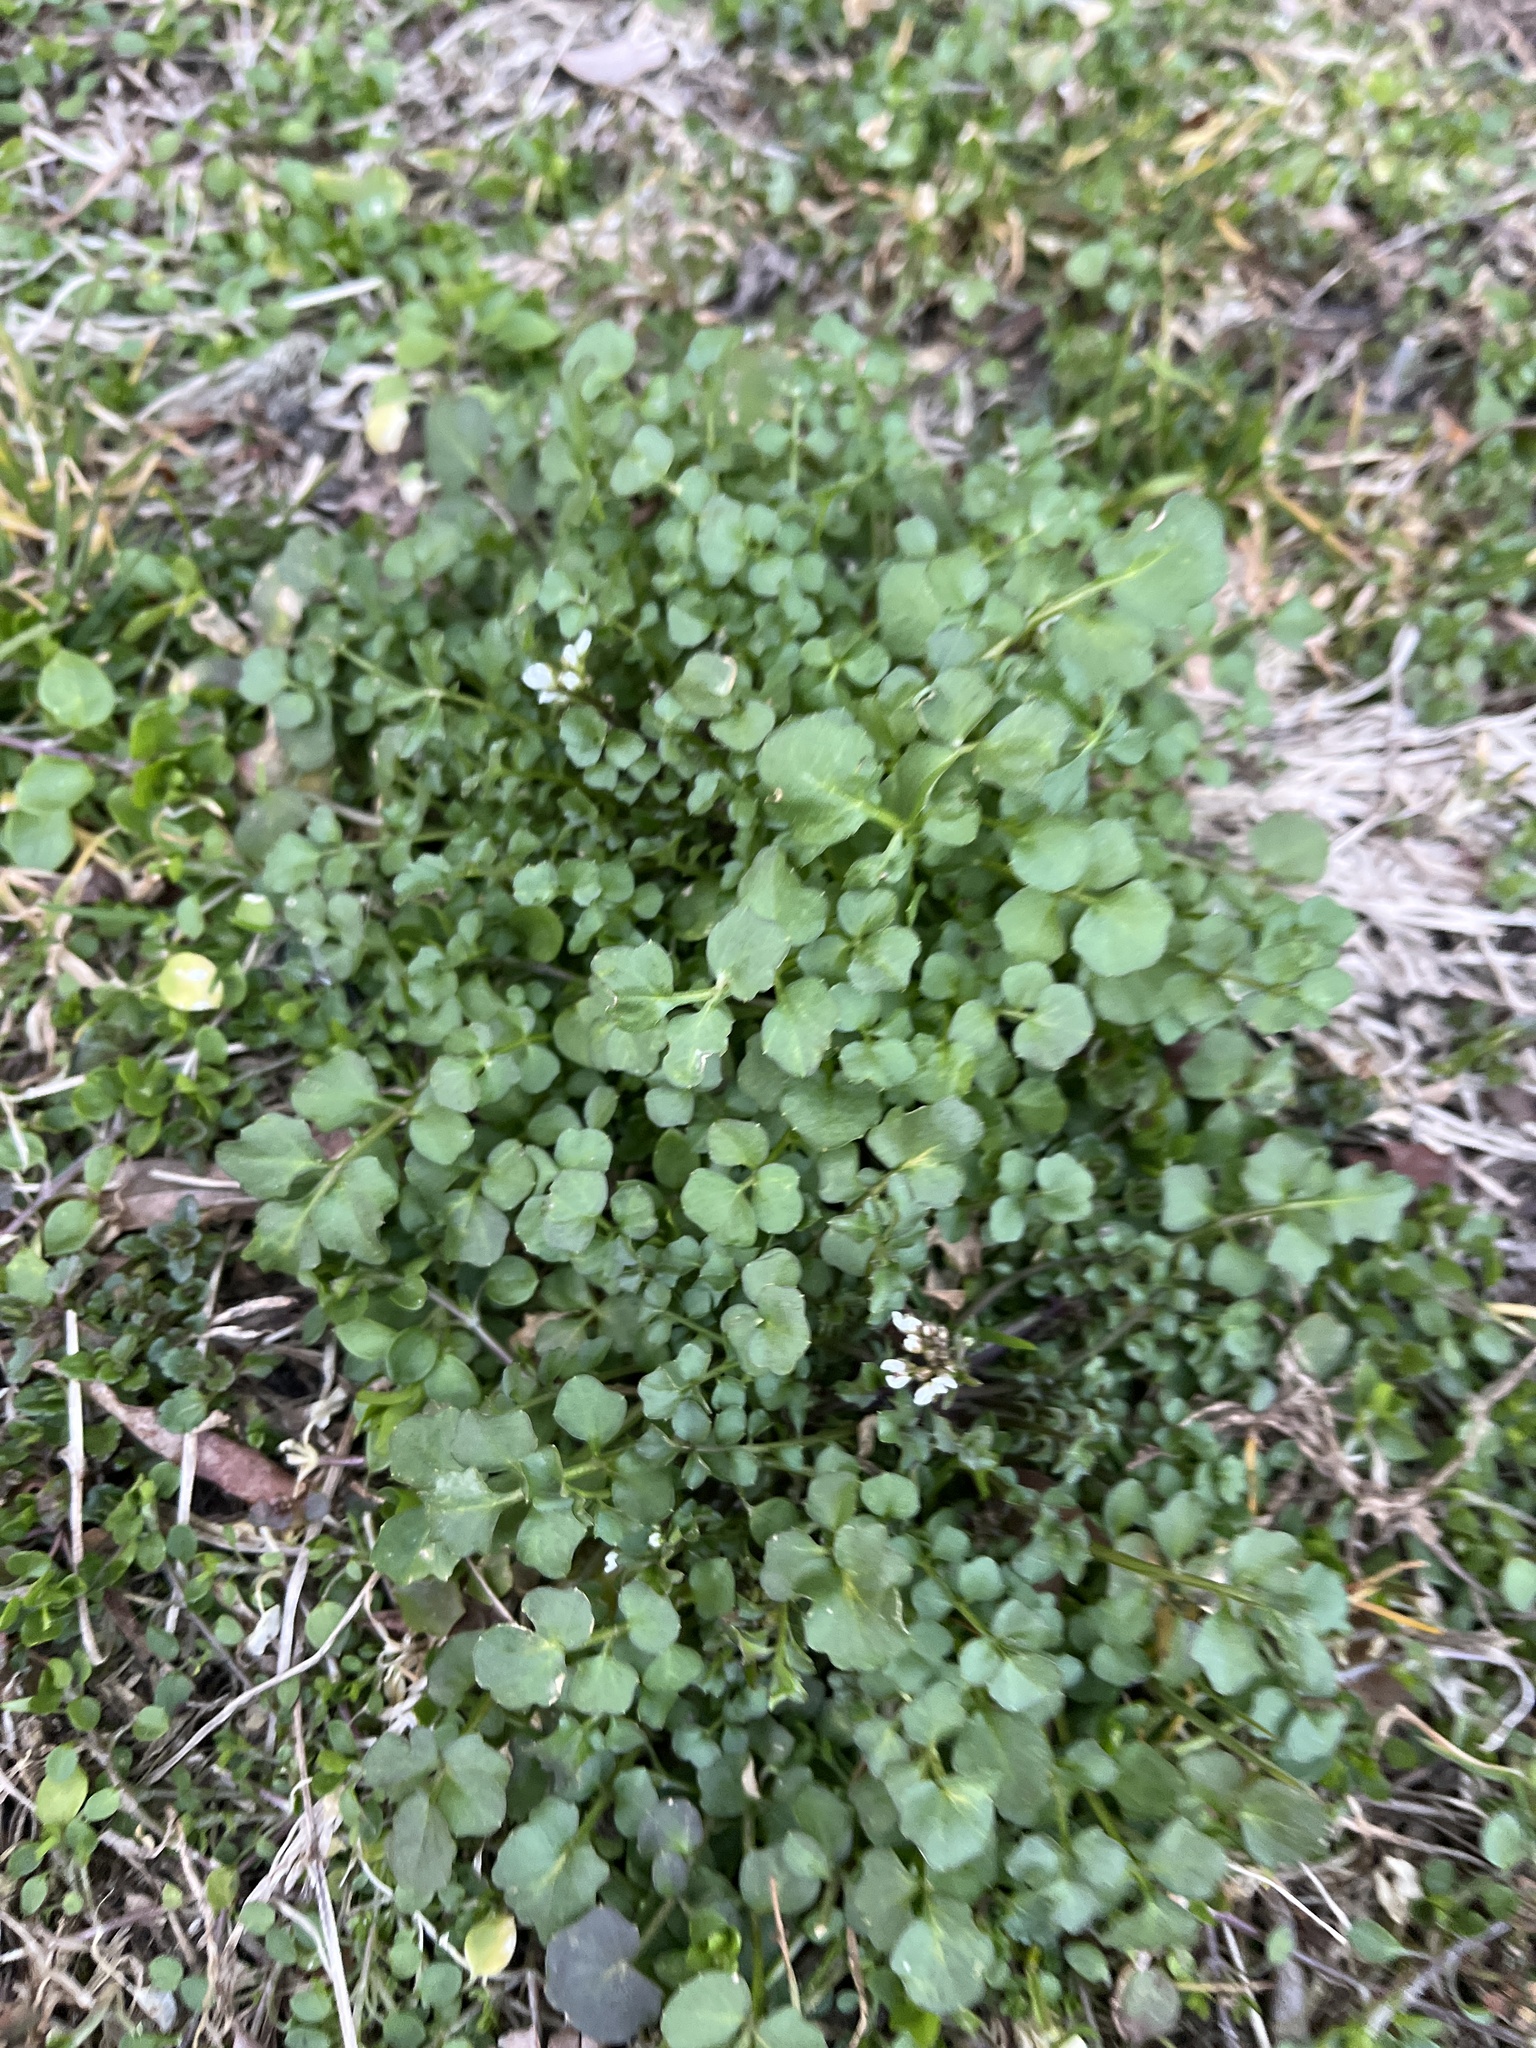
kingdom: Plantae
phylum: Tracheophyta
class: Magnoliopsida
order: Brassicales
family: Brassicaceae
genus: Cardamine
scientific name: Cardamine hirsuta
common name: Hairy bittercress
